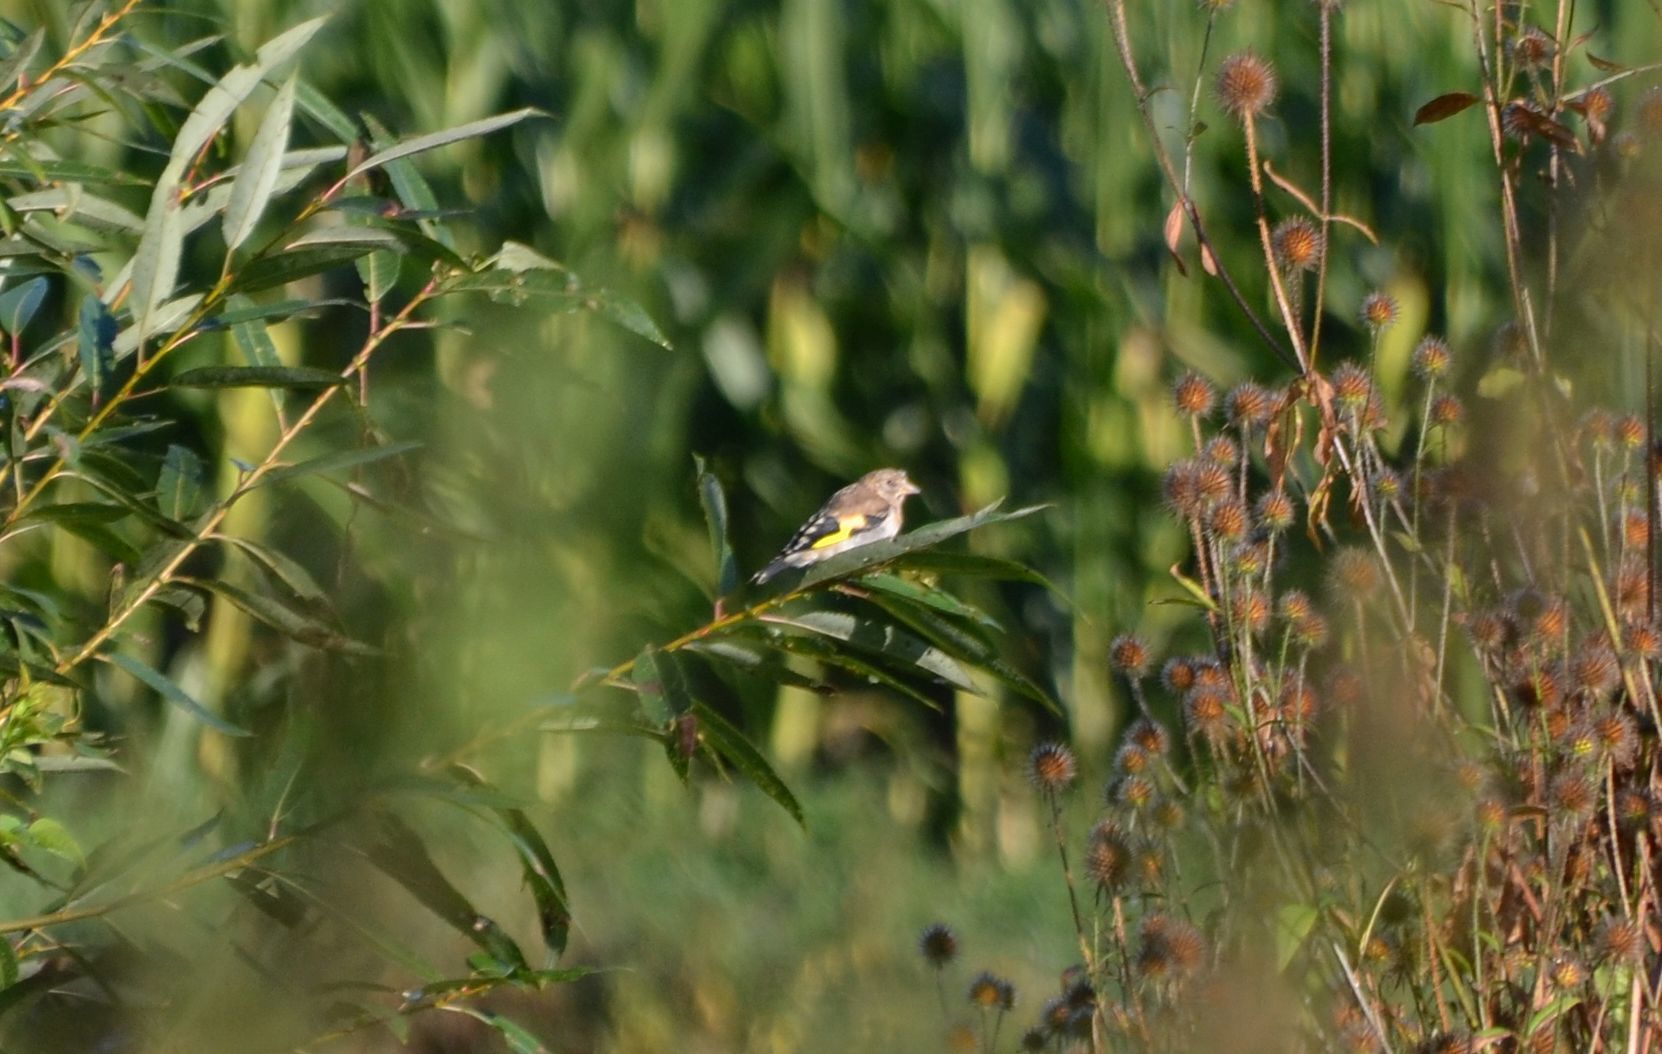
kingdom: Animalia
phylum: Chordata
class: Aves
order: Passeriformes
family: Fringillidae
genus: Carduelis
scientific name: Carduelis carduelis
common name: European goldfinch
